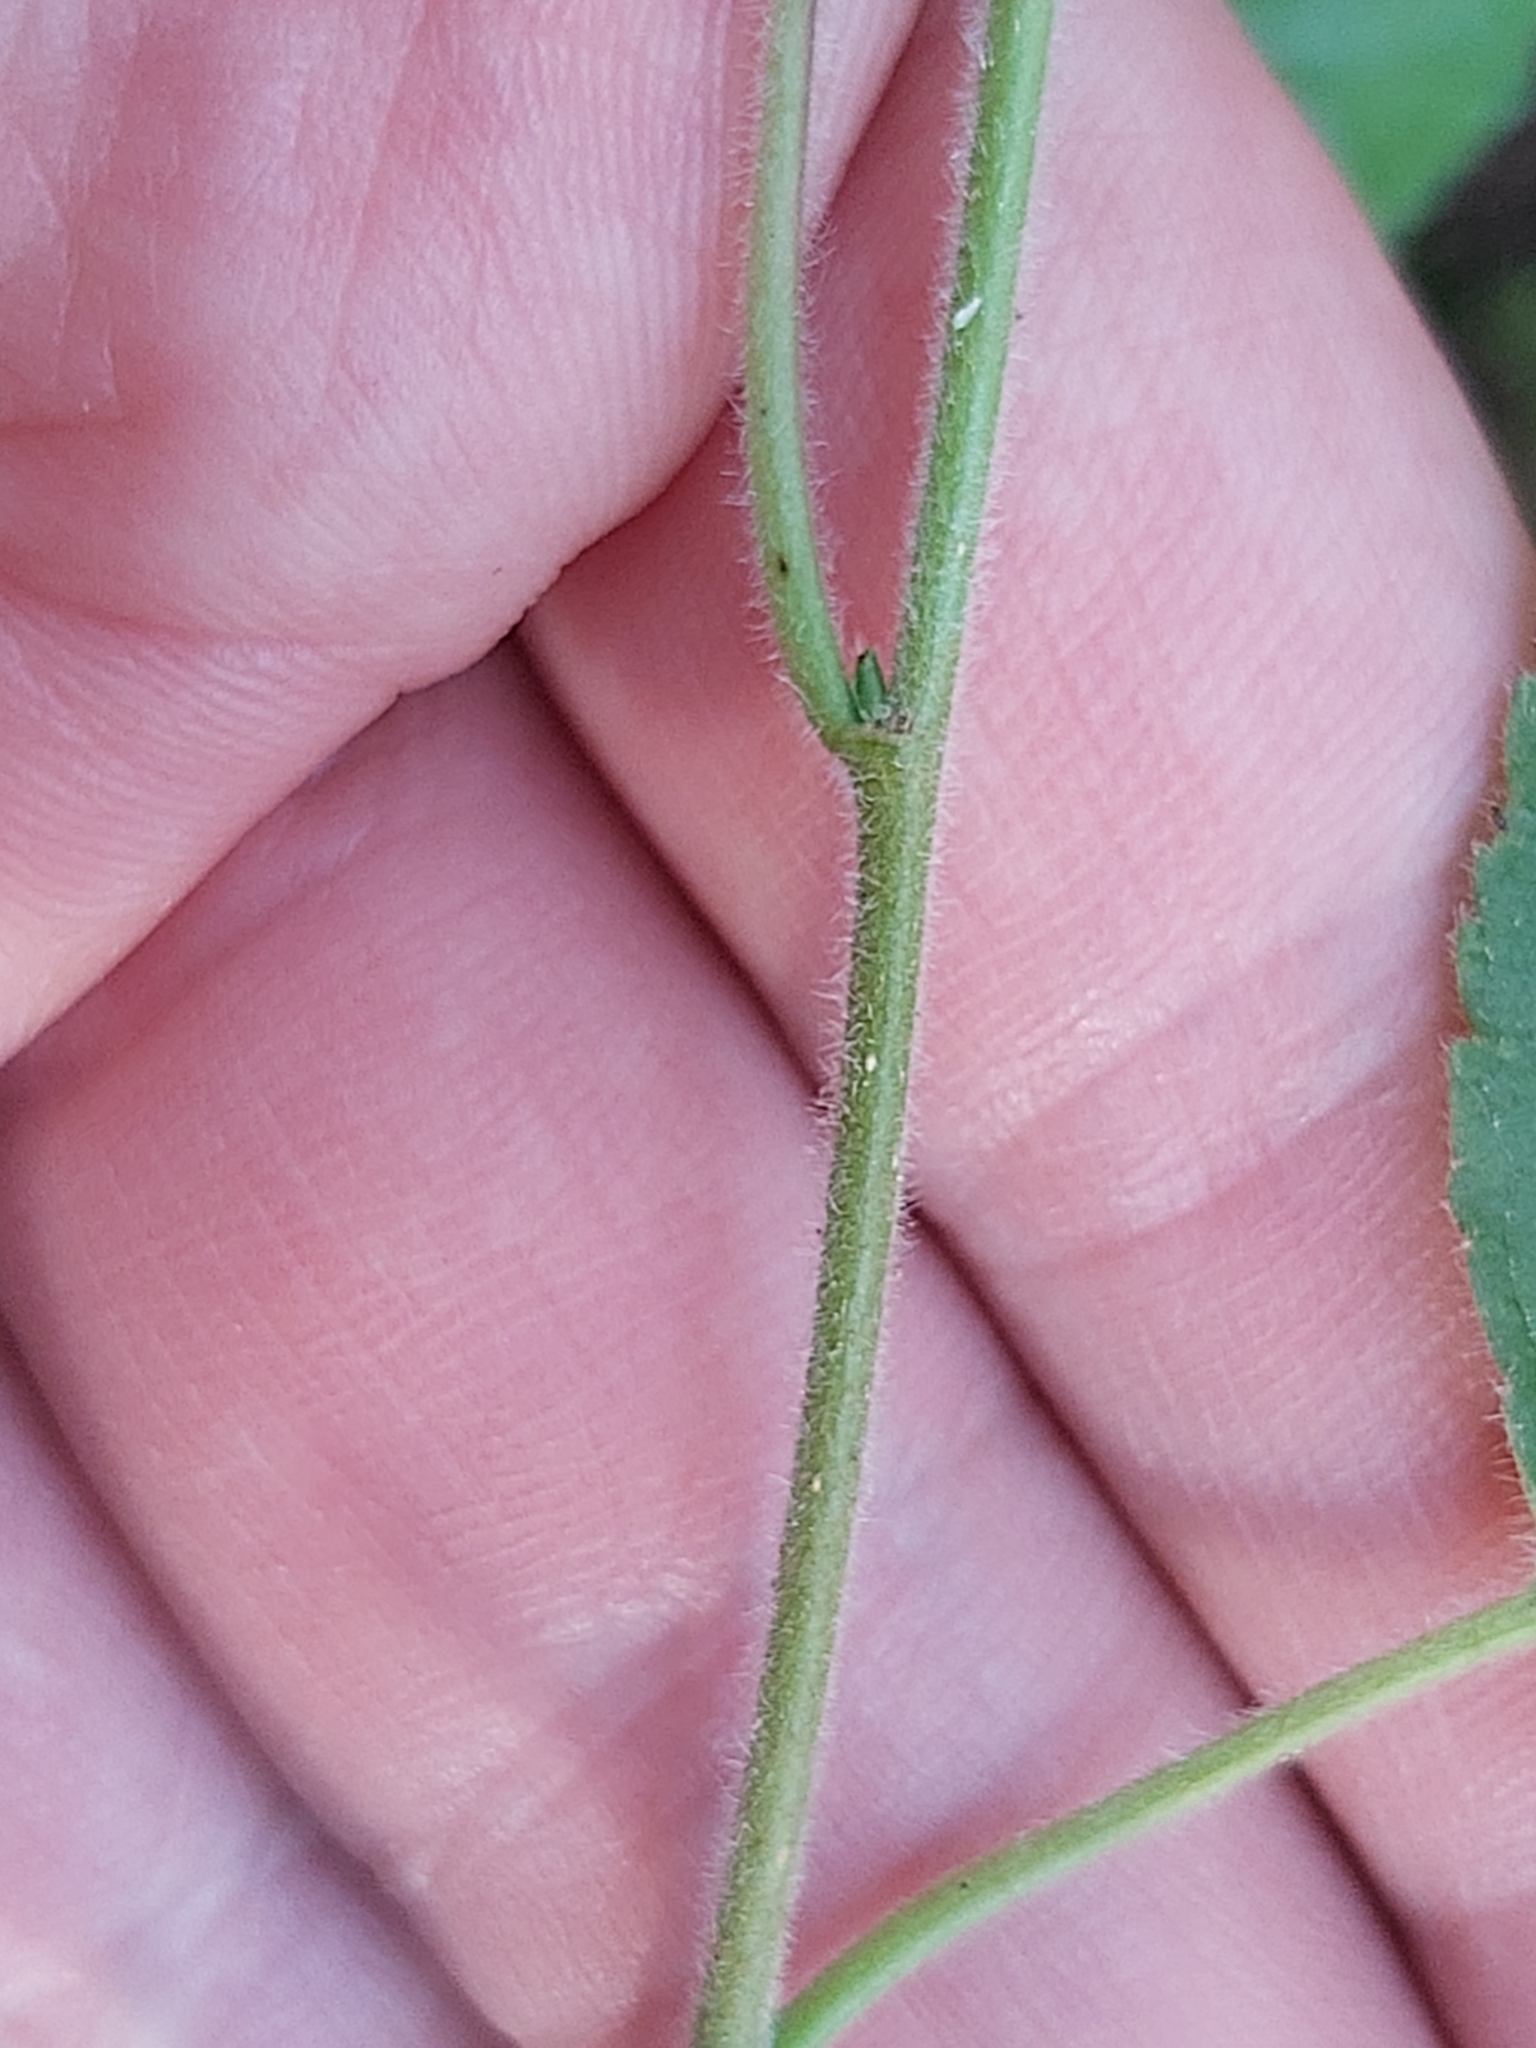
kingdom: Plantae
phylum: Tracheophyta
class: Magnoliopsida
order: Fagales
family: Betulaceae
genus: Betula
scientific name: Betula pubescens
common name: Downy birch
